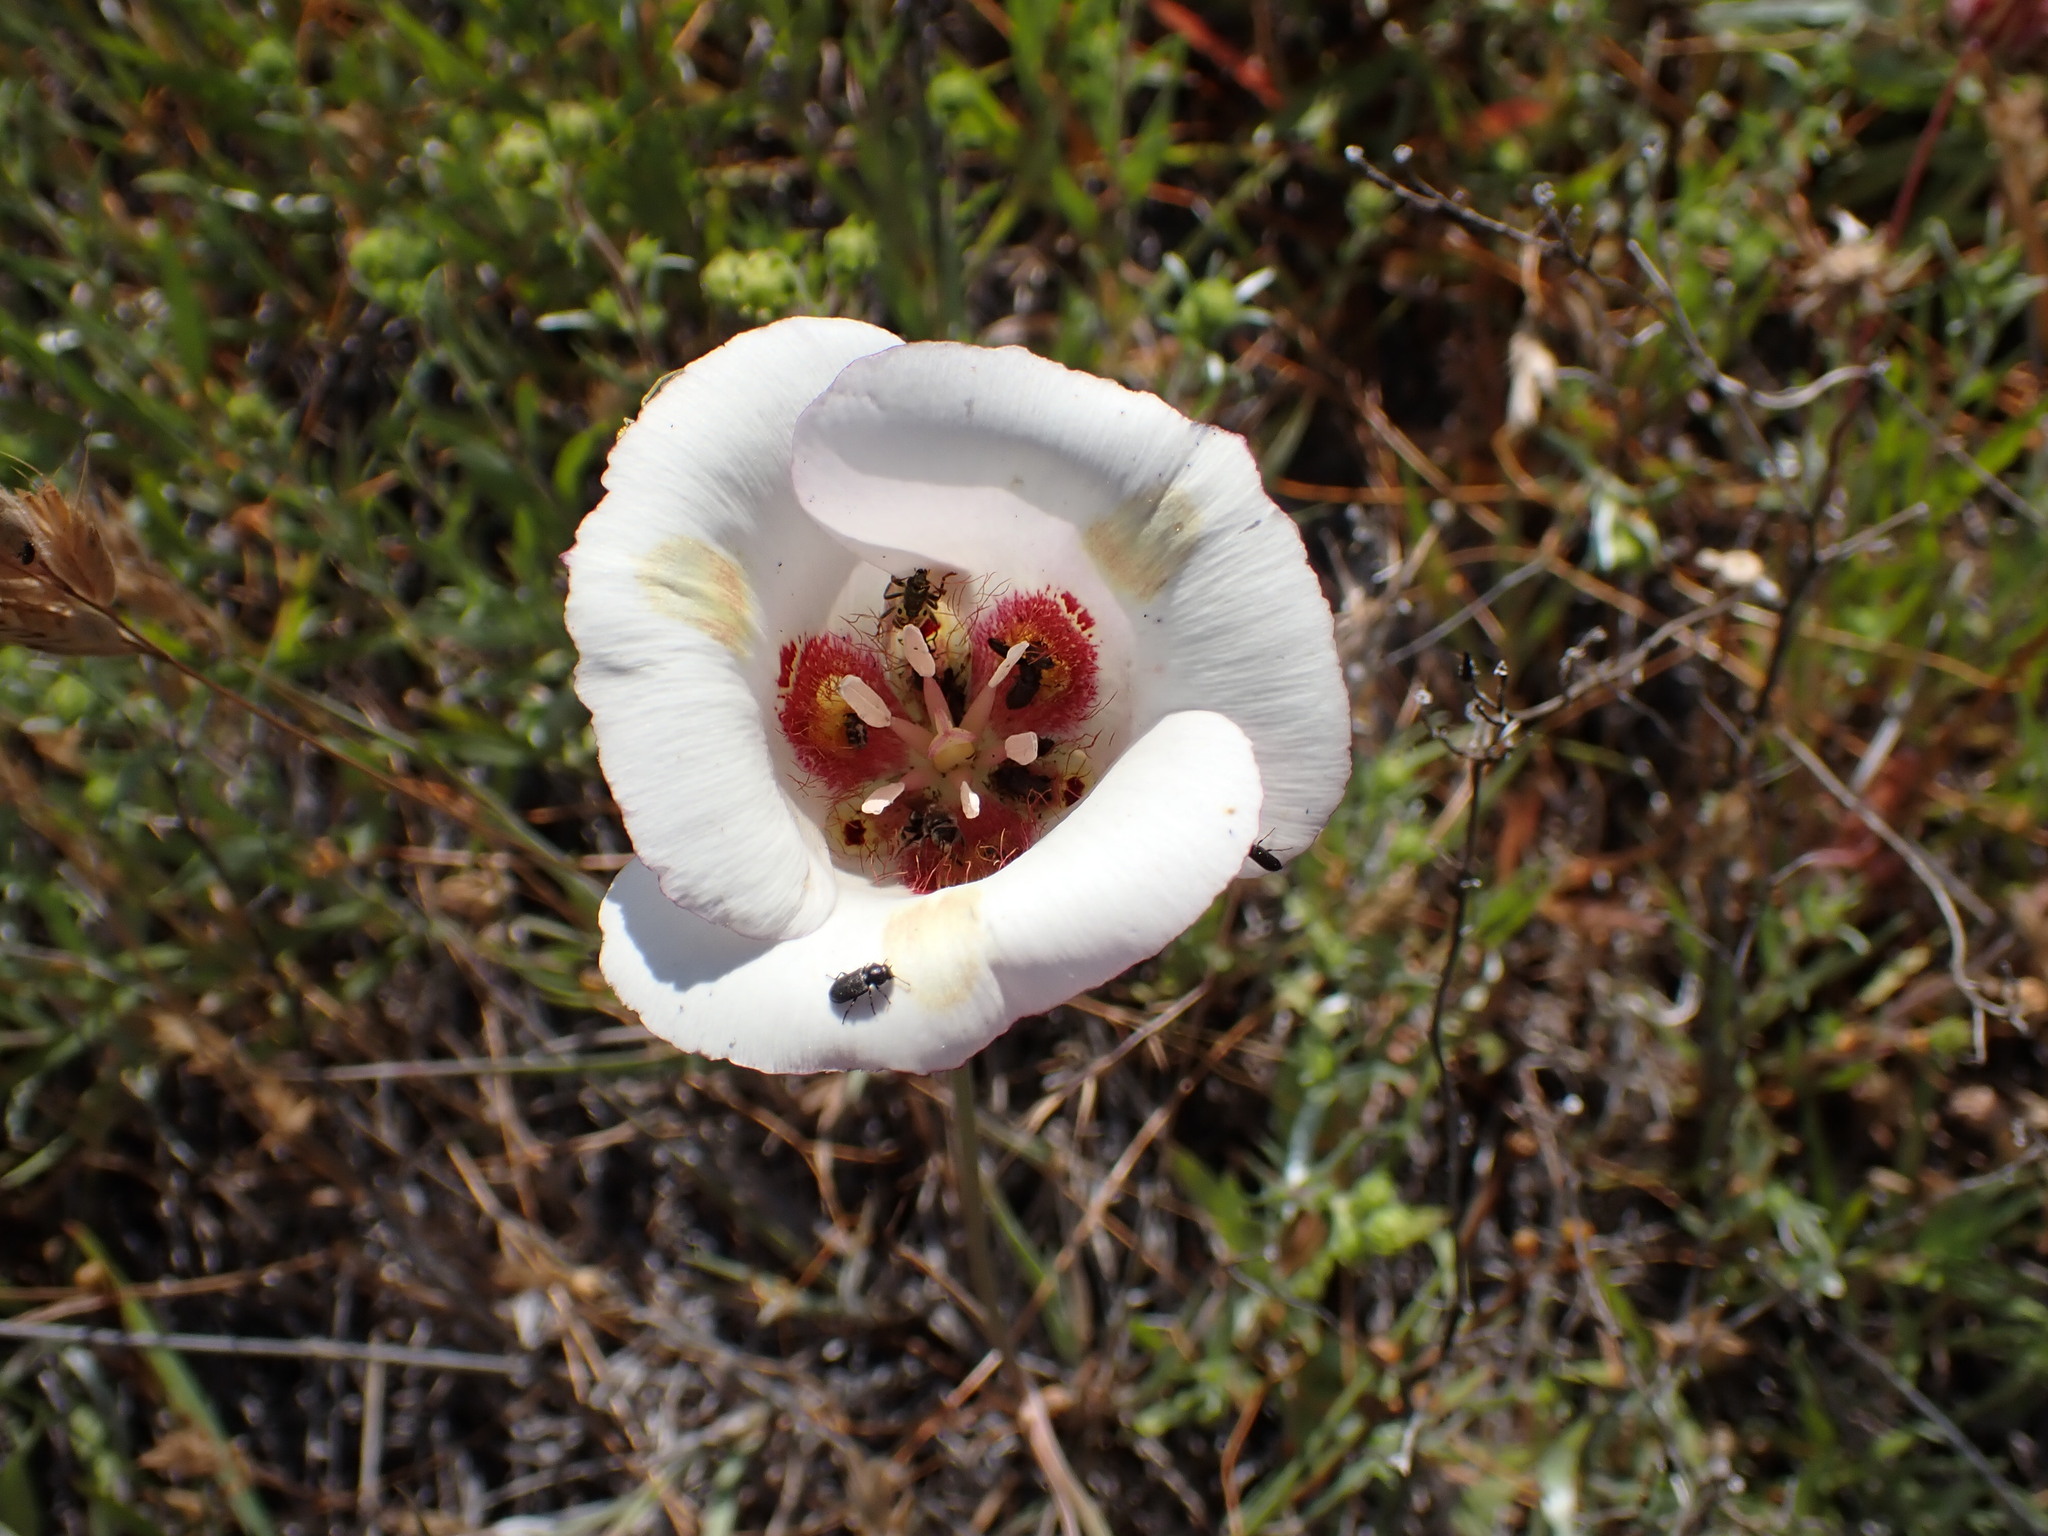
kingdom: Plantae
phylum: Tracheophyta
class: Liliopsida
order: Liliales
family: Liliaceae
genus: Calochortus
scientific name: Calochortus venustus
